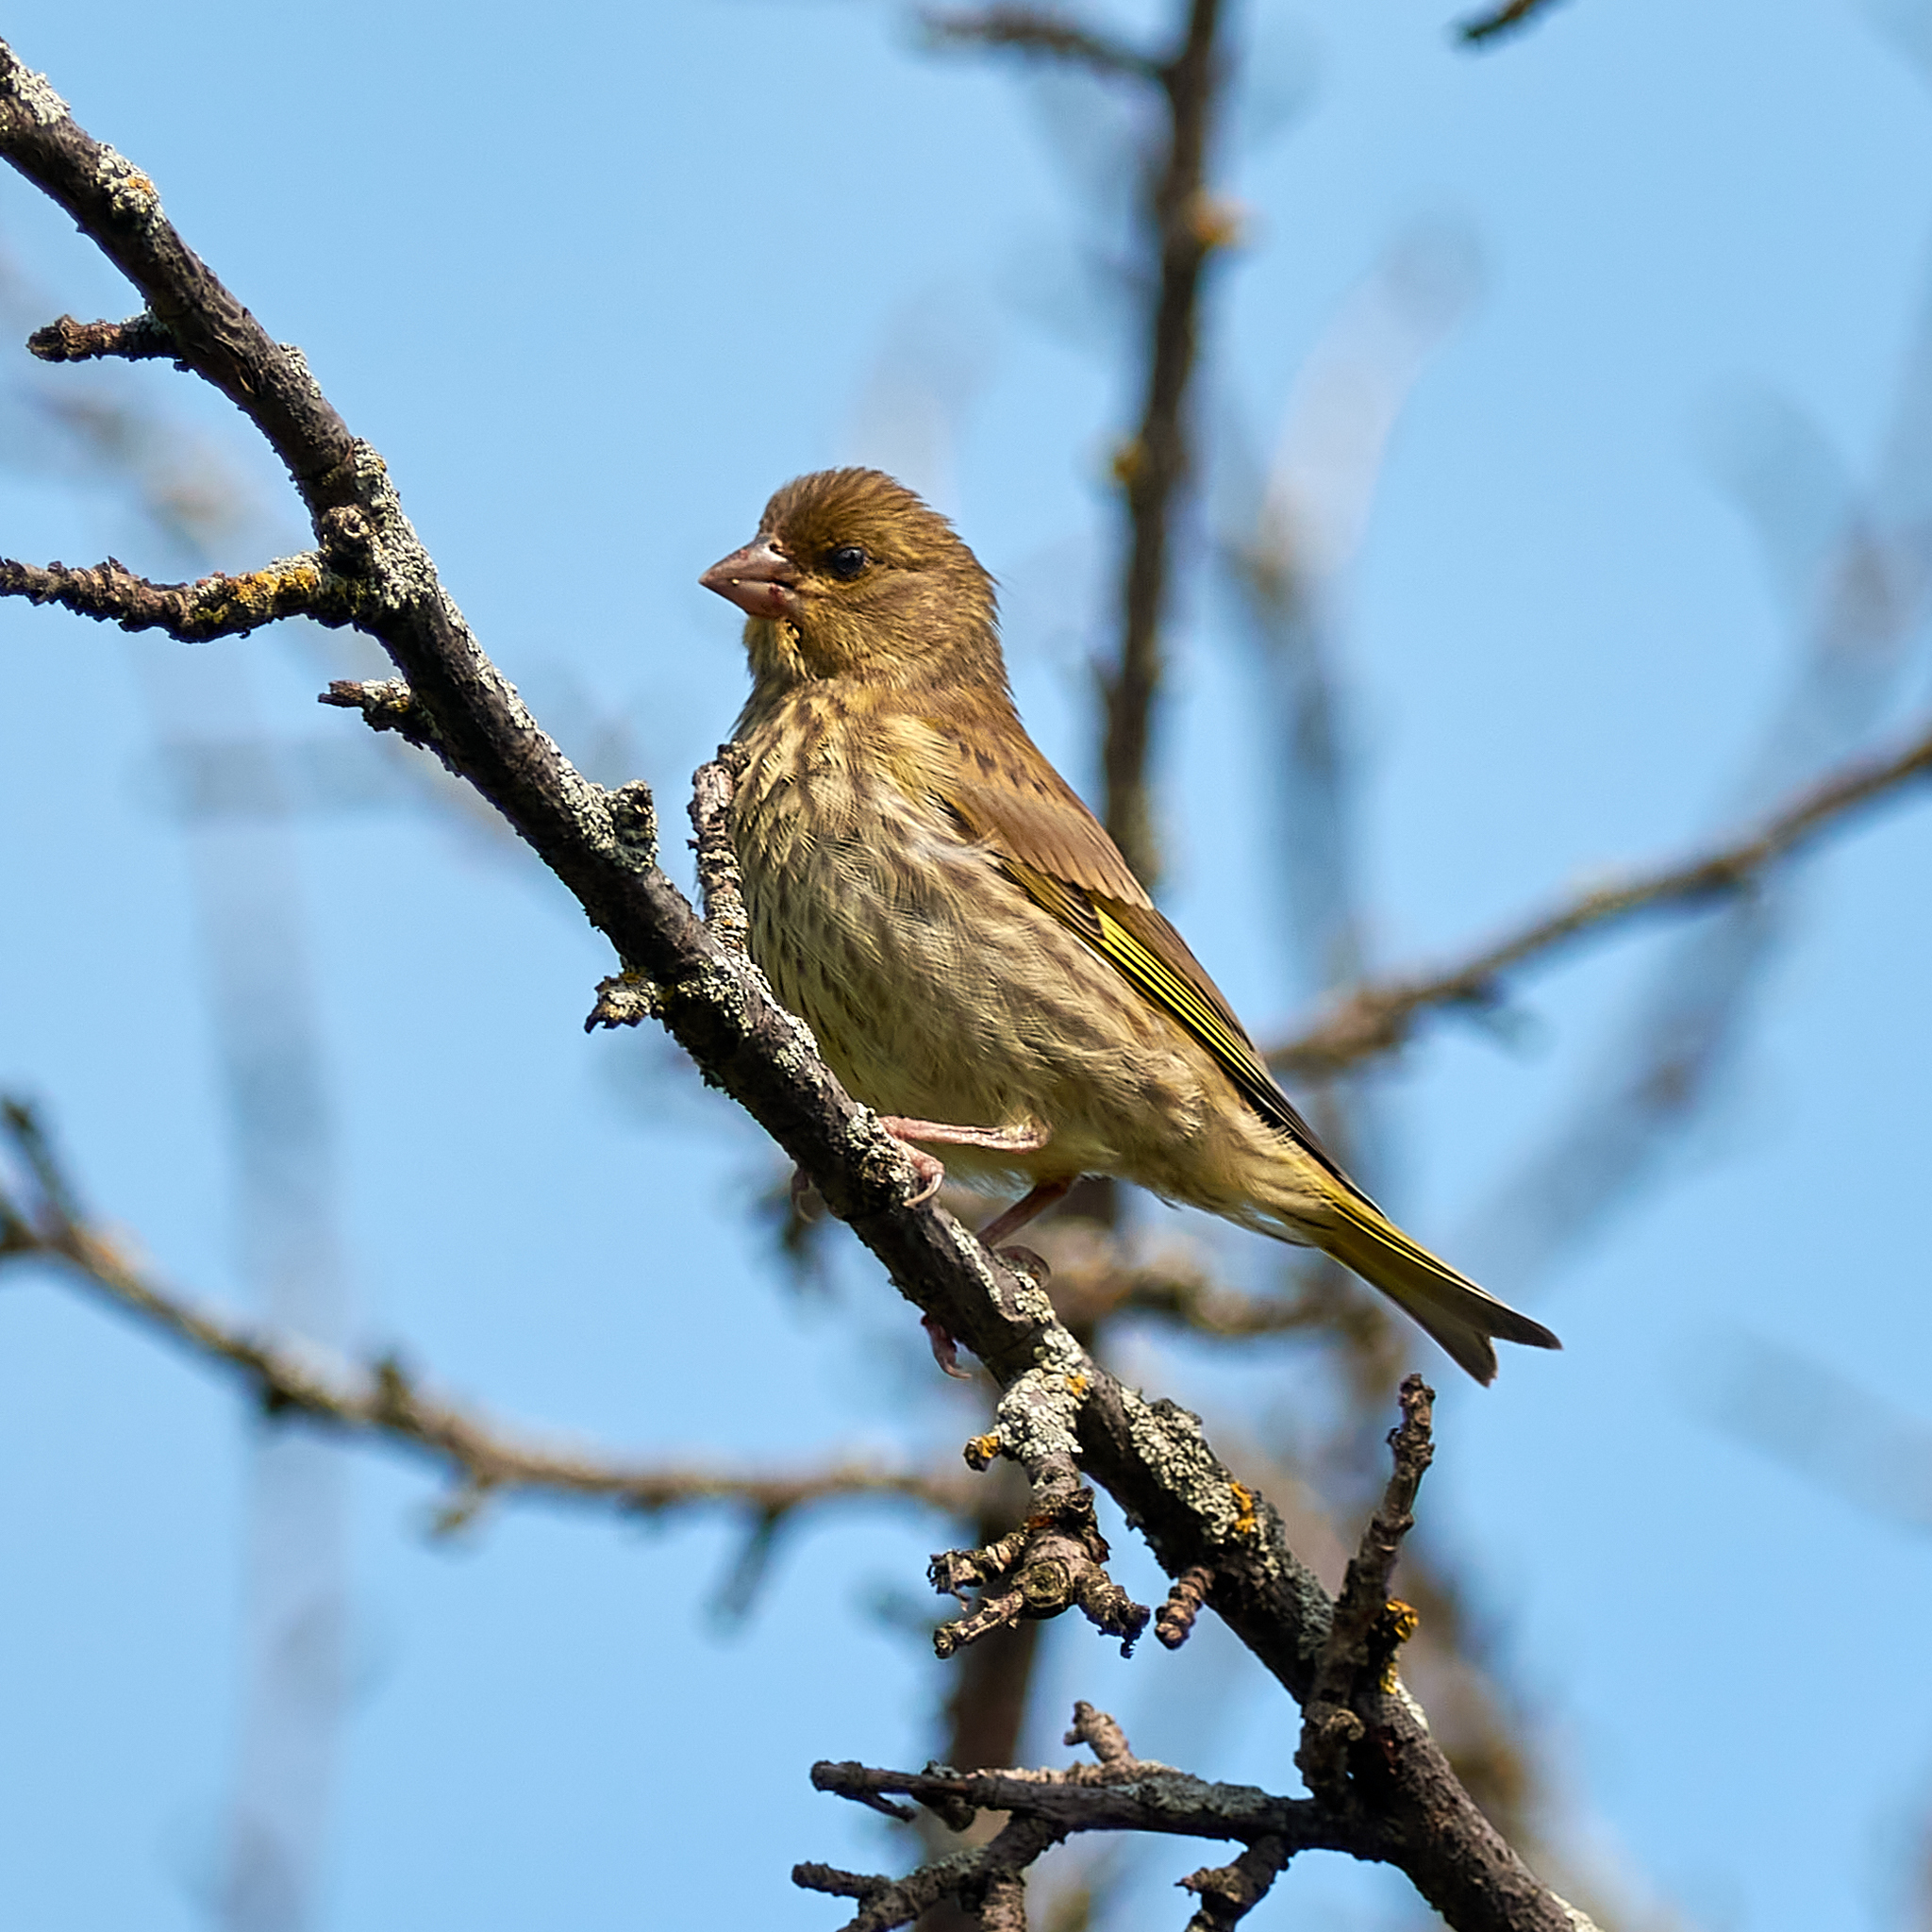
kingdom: Plantae
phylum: Tracheophyta
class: Liliopsida
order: Poales
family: Poaceae
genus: Chloris
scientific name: Chloris chloris
